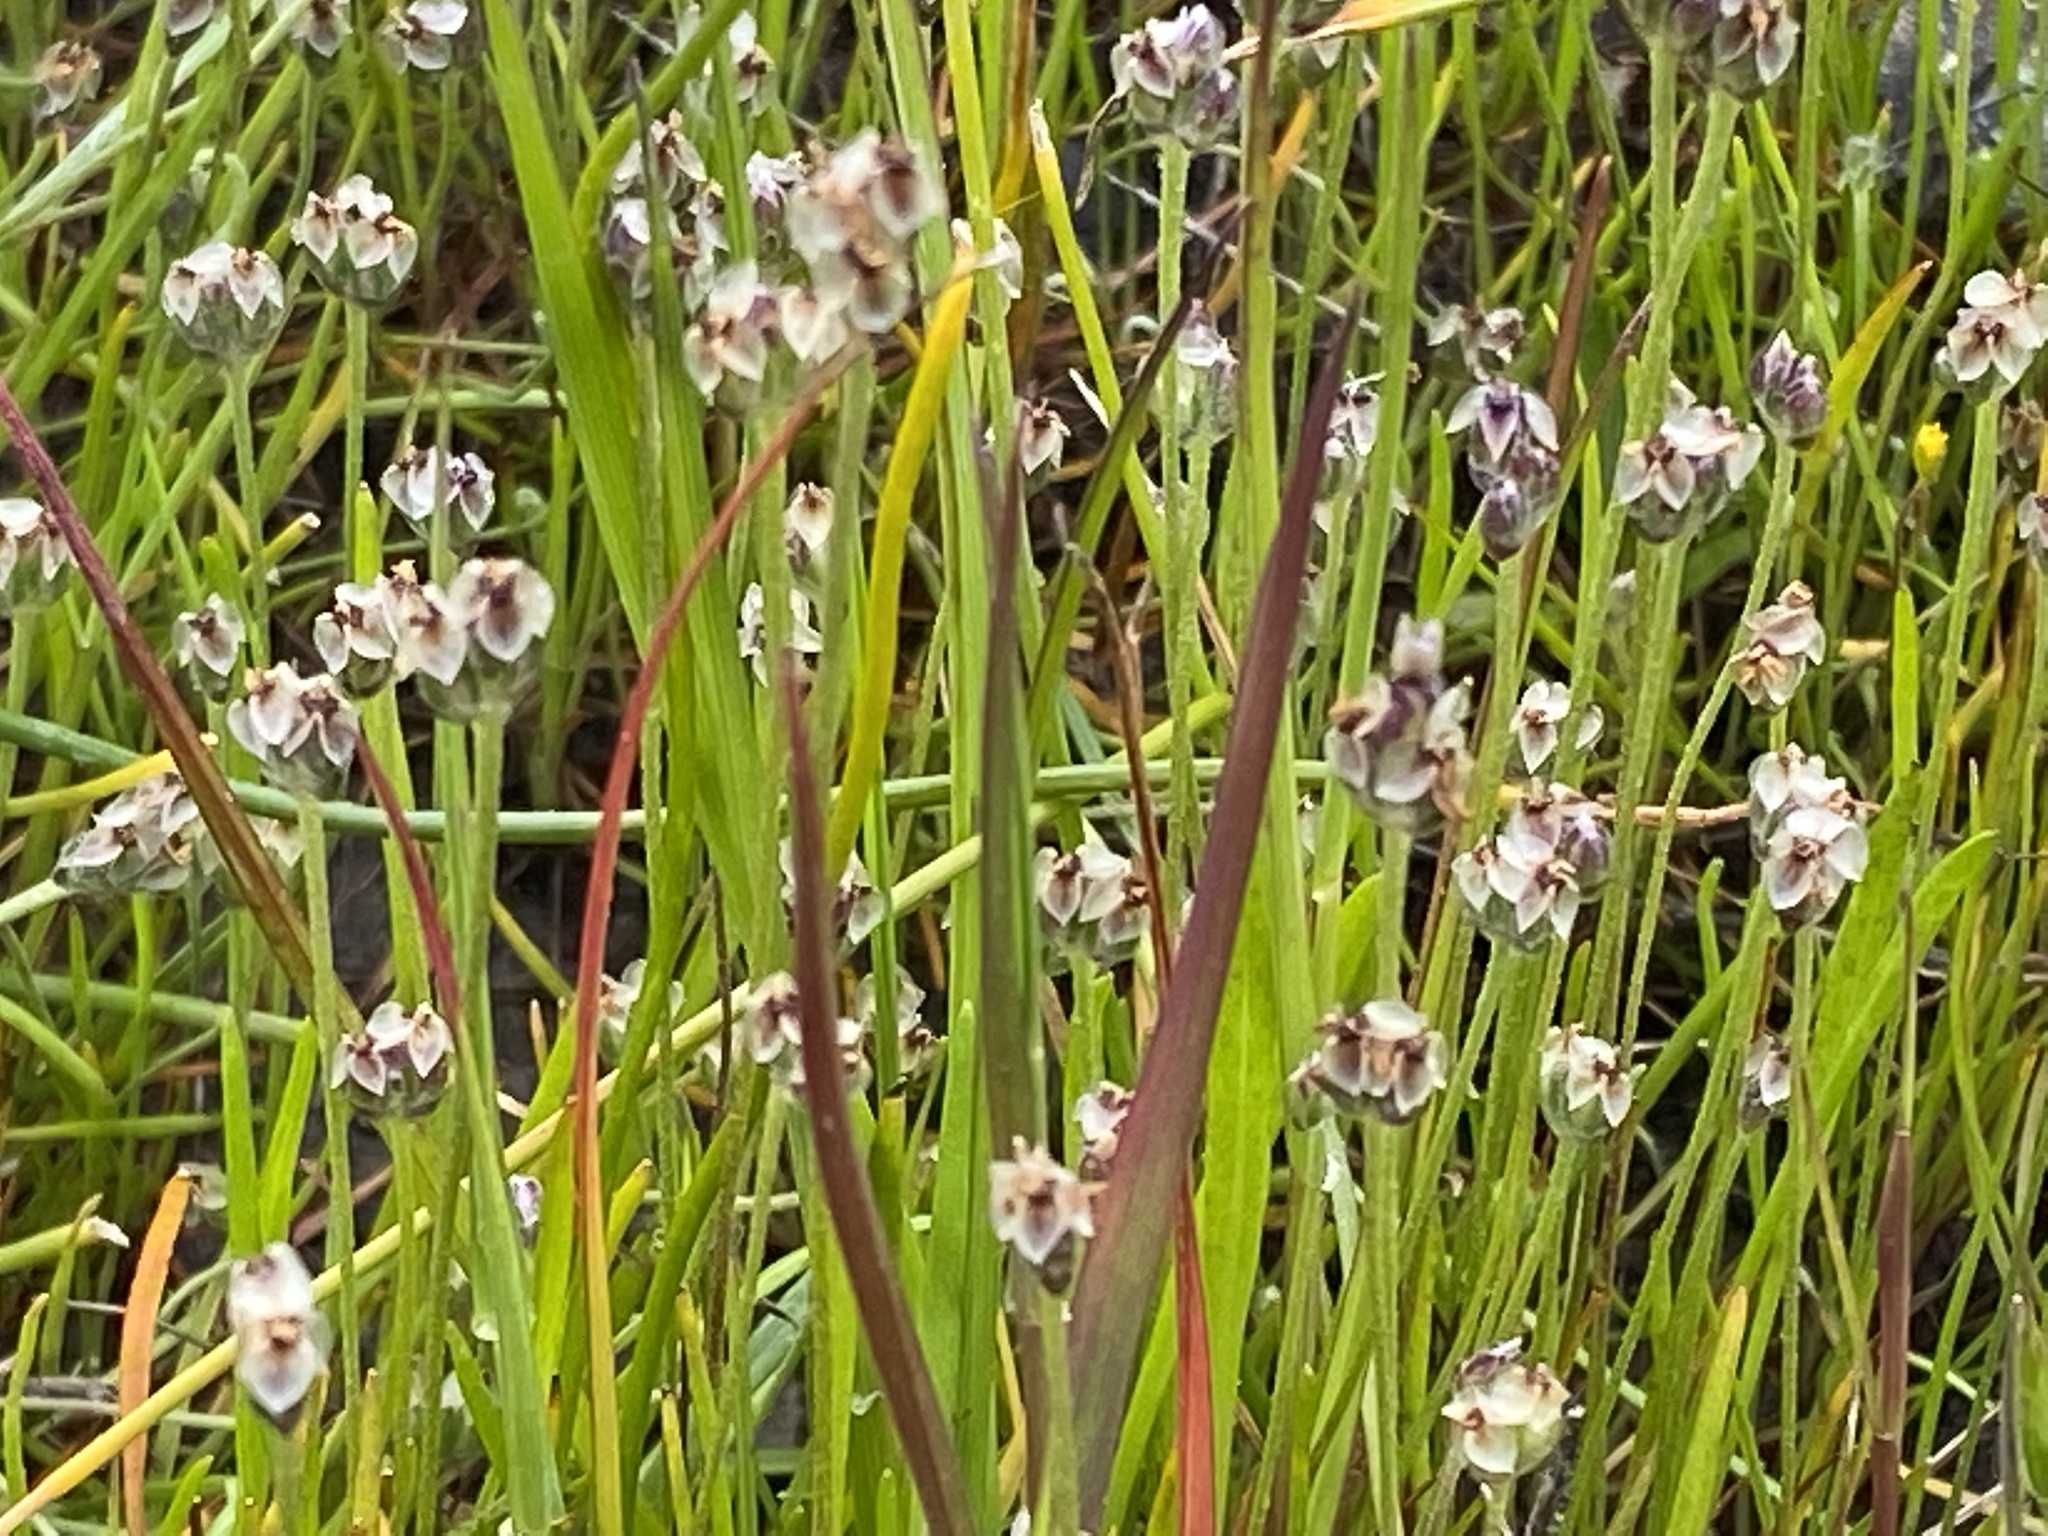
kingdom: Plantae
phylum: Tracheophyta
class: Magnoliopsida
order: Lamiales
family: Plantaginaceae
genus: Plantago
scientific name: Plantago erecta
